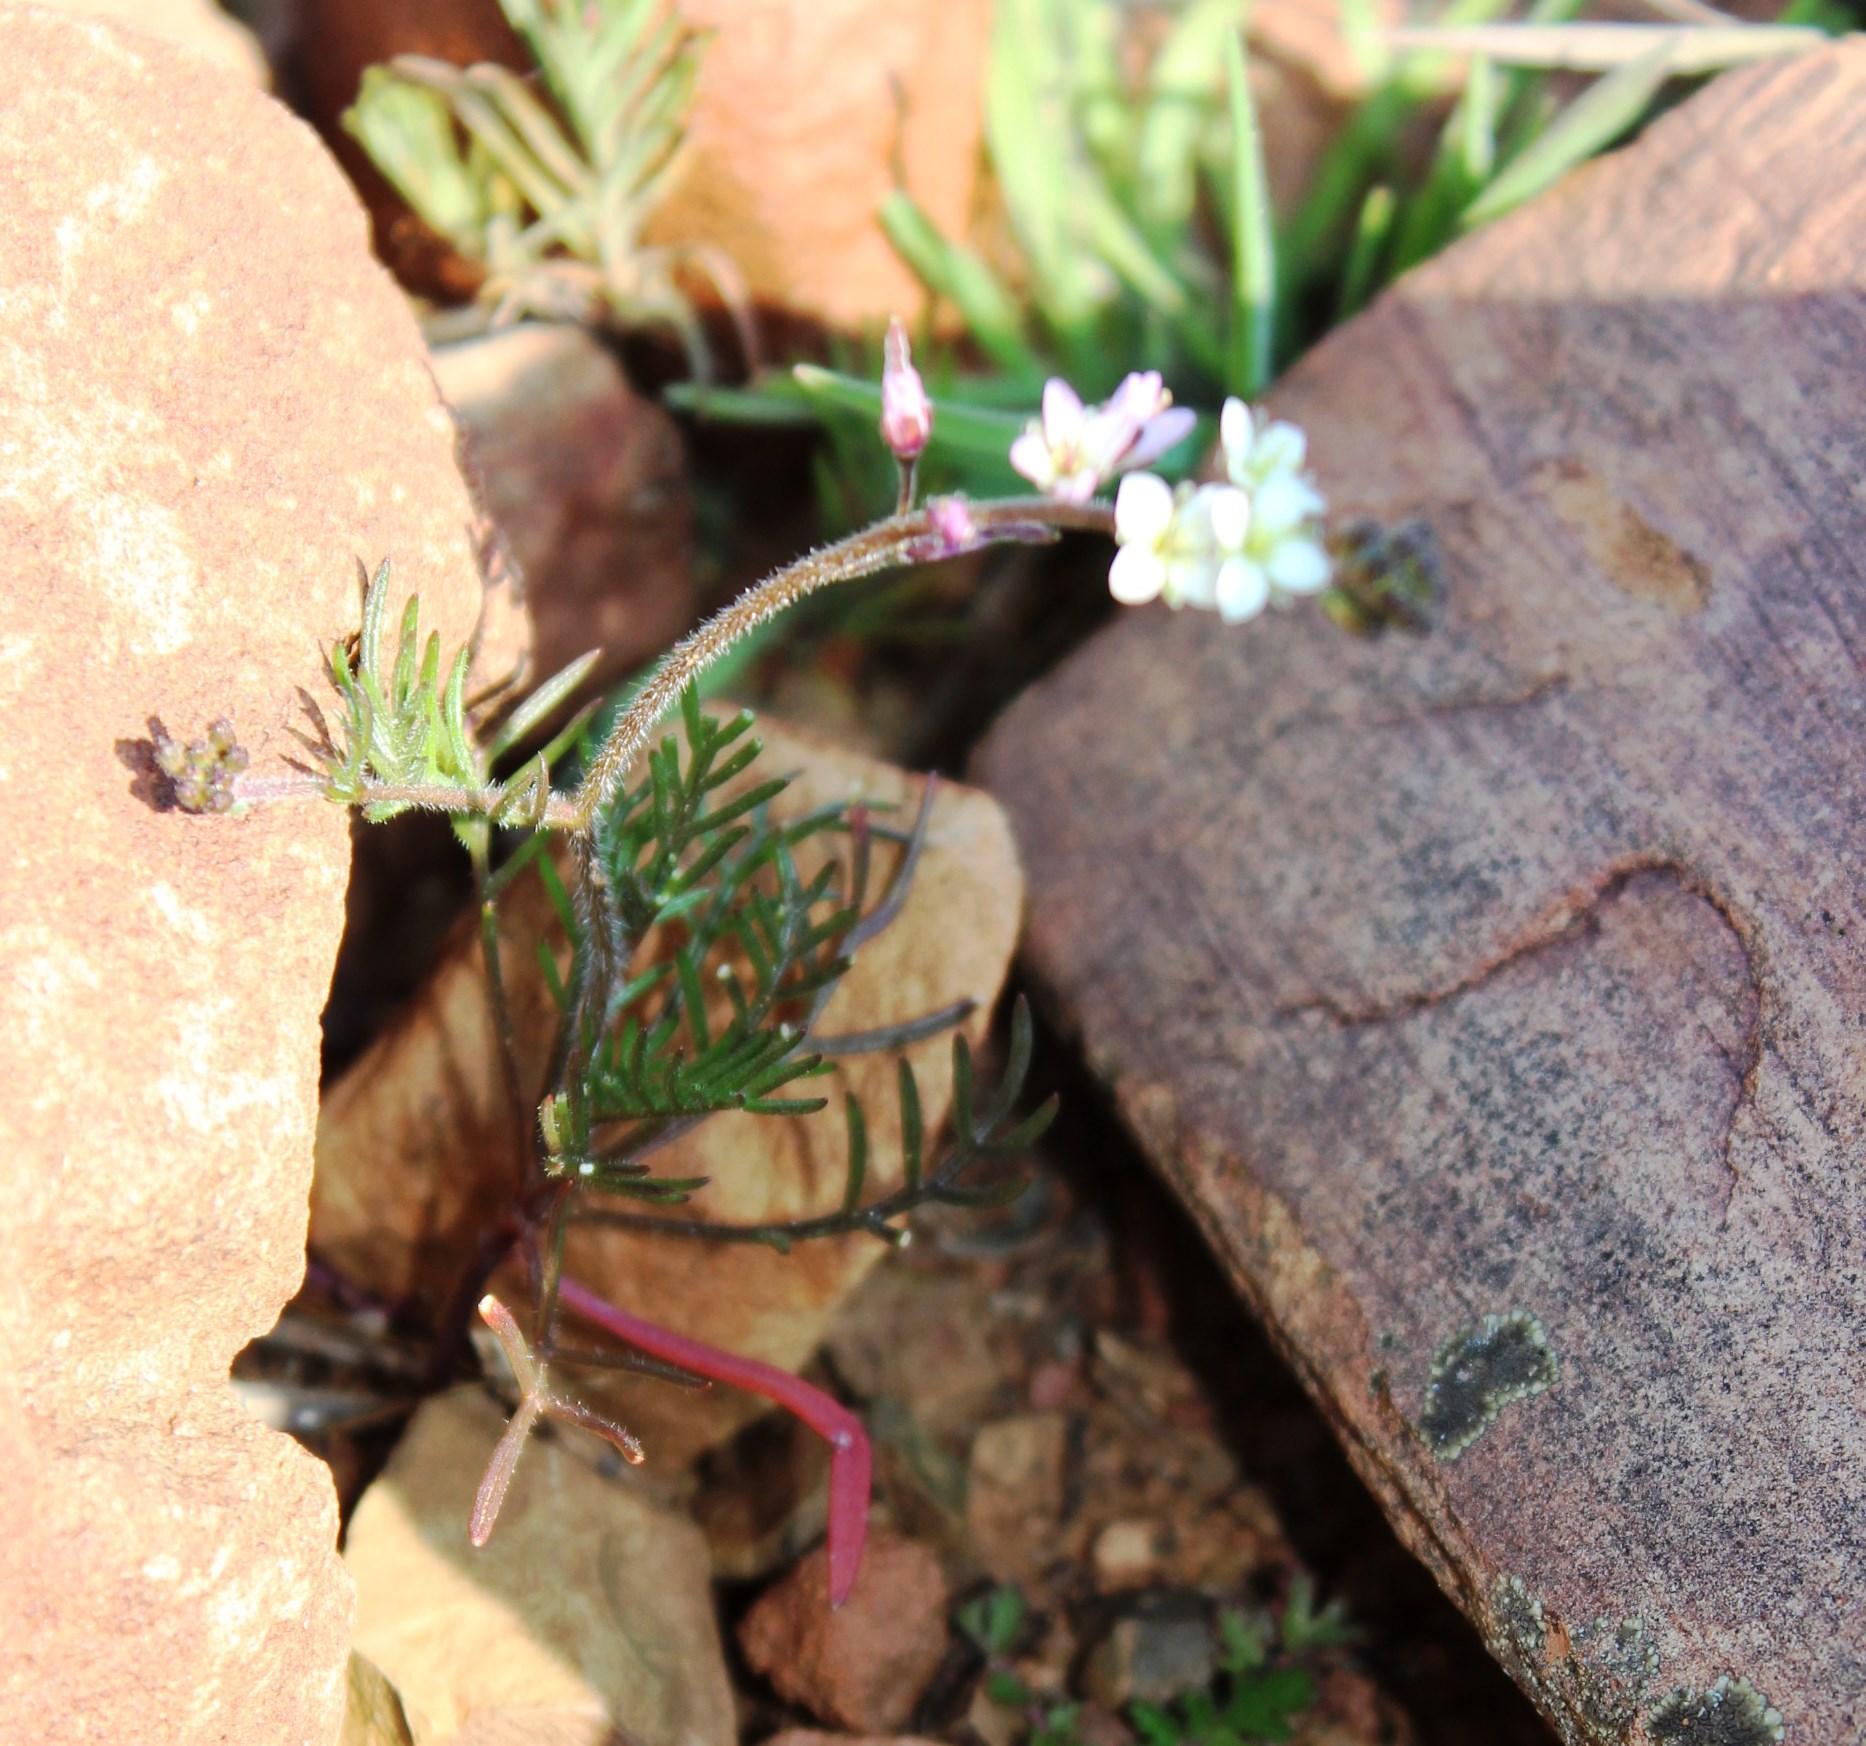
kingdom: Plantae
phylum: Tracheophyta
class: Magnoliopsida
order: Brassicales
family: Brassicaceae
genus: Heliophila
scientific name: Heliophila pubescens
